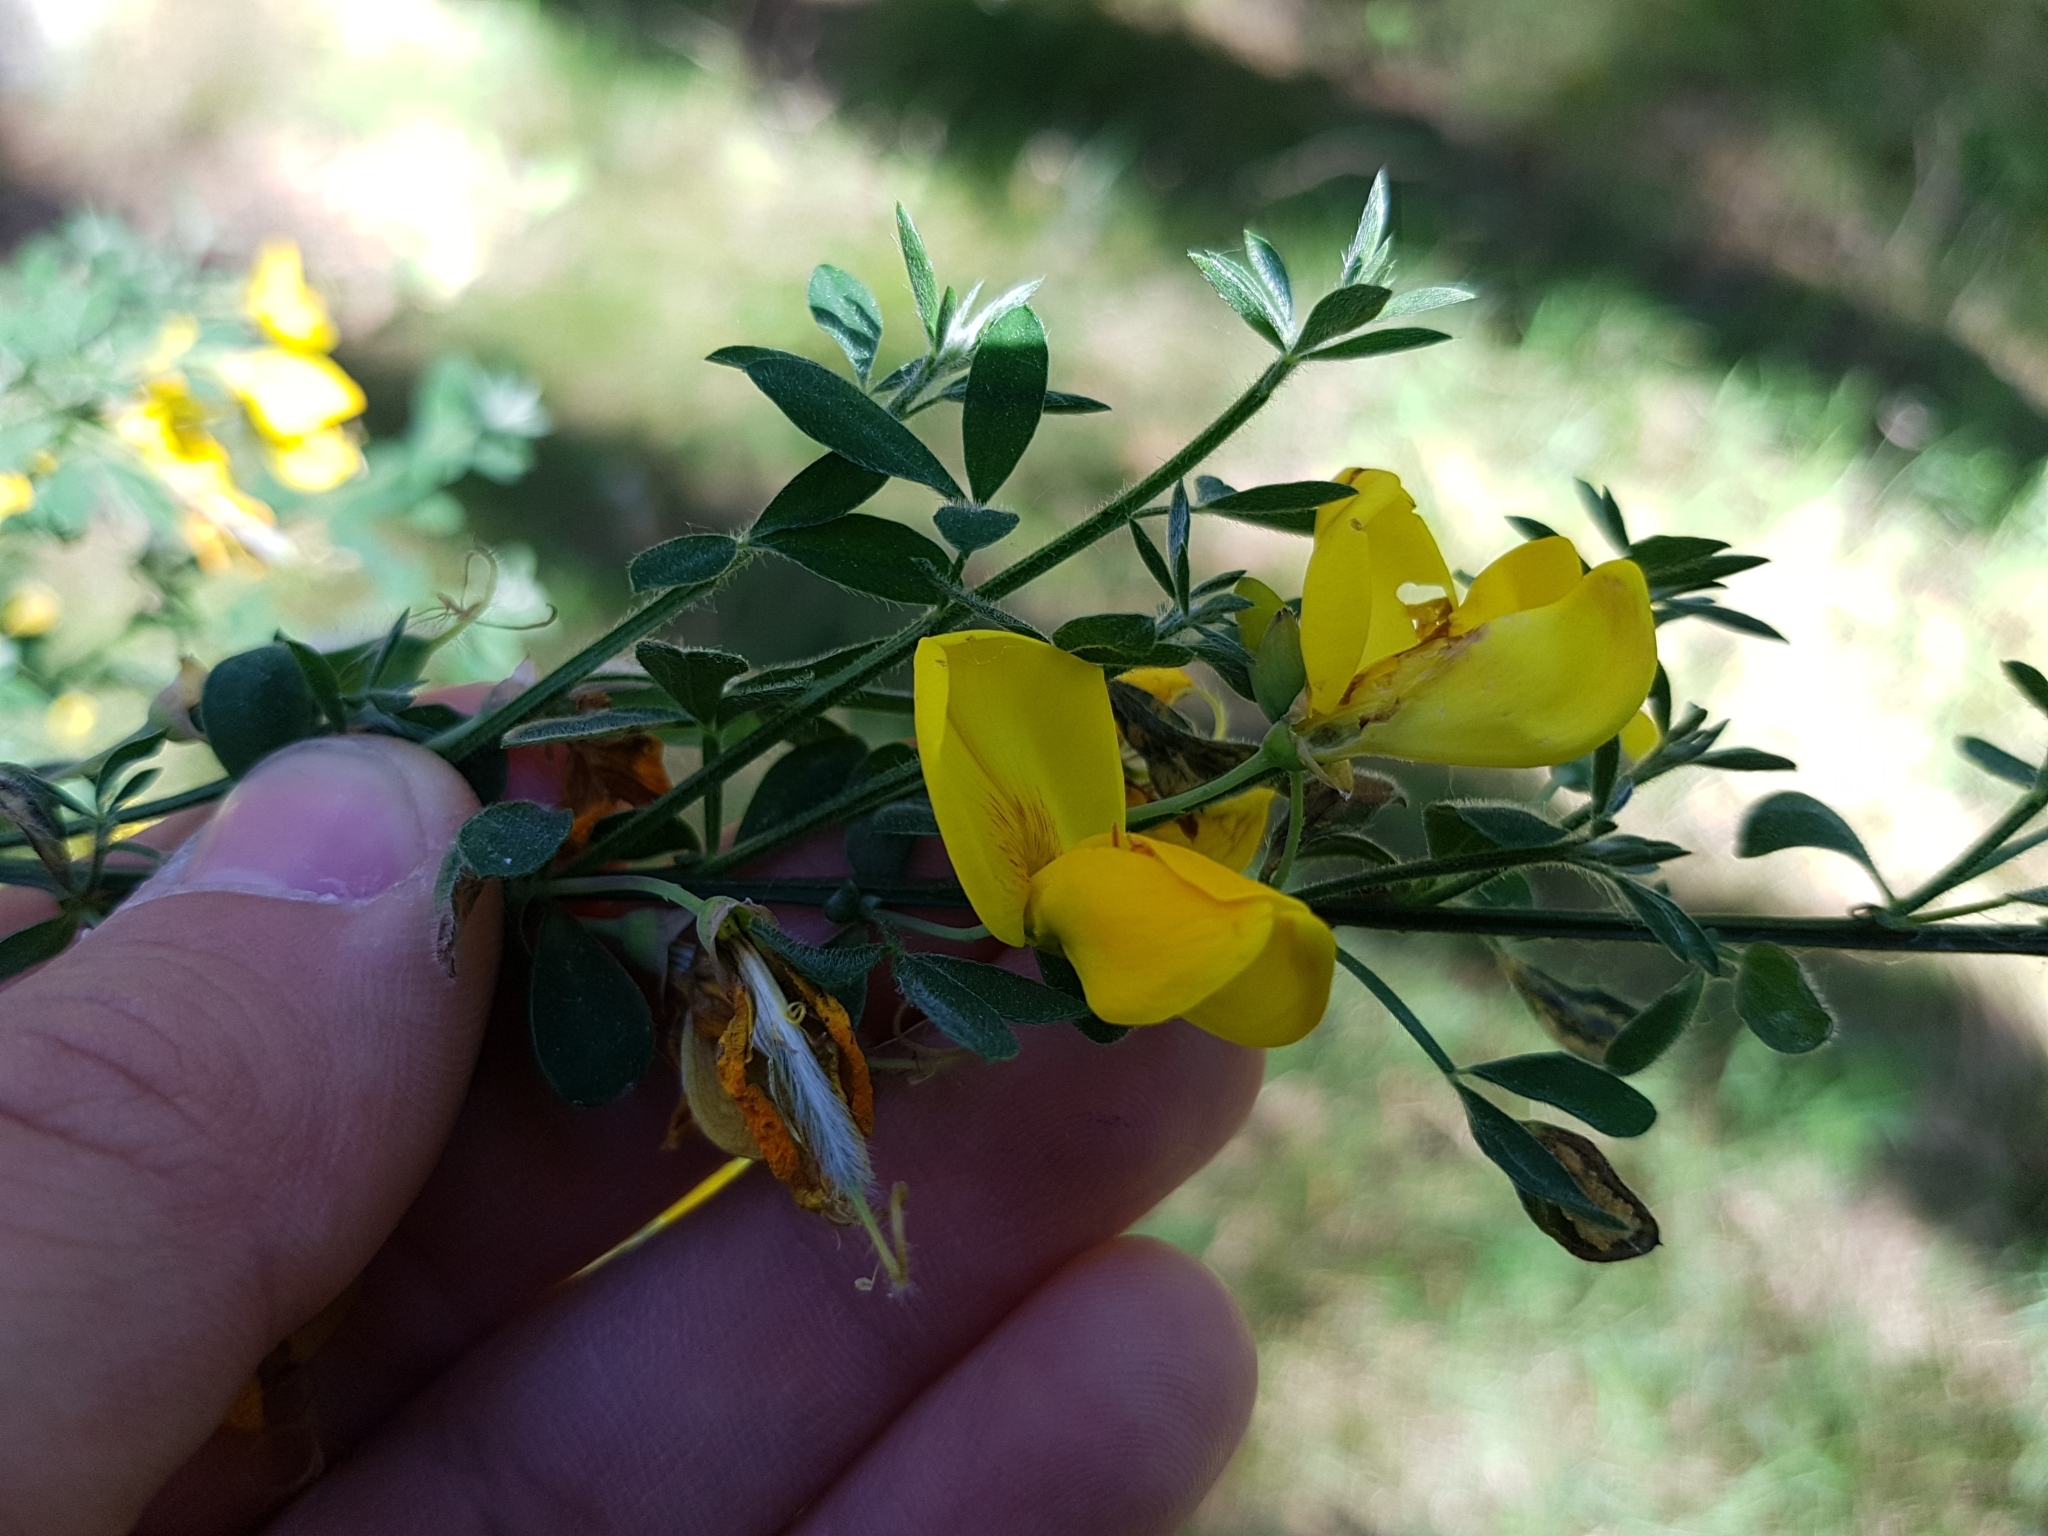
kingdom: Plantae
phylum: Tracheophyta
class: Magnoliopsida
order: Fabales
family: Fabaceae
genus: Cytisus
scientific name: Cytisus scoparius
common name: Scotch broom
